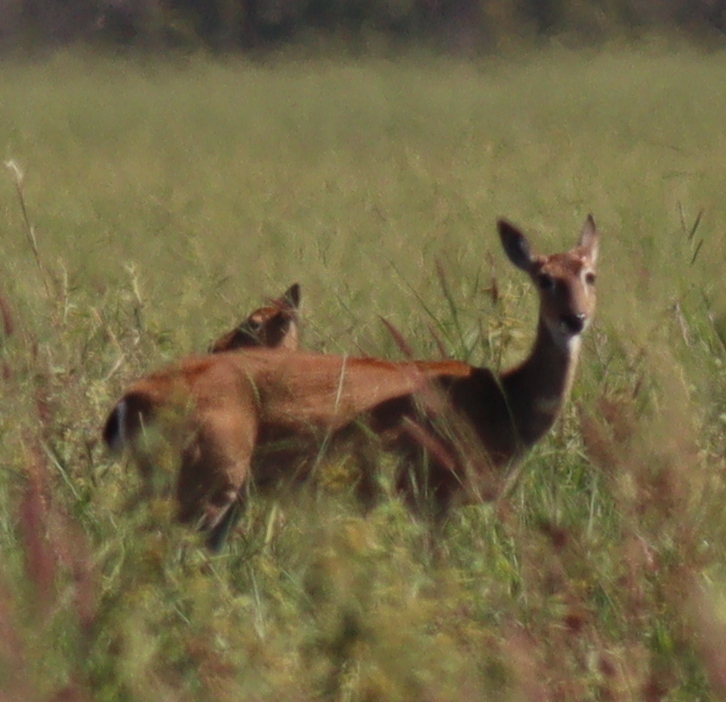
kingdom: Animalia
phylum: Chordata
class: Mammalia
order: Artiodactyla
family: Cervidae
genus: Ozotoceros
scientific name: Ozotoceros bezoarticus
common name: Pampas deer
